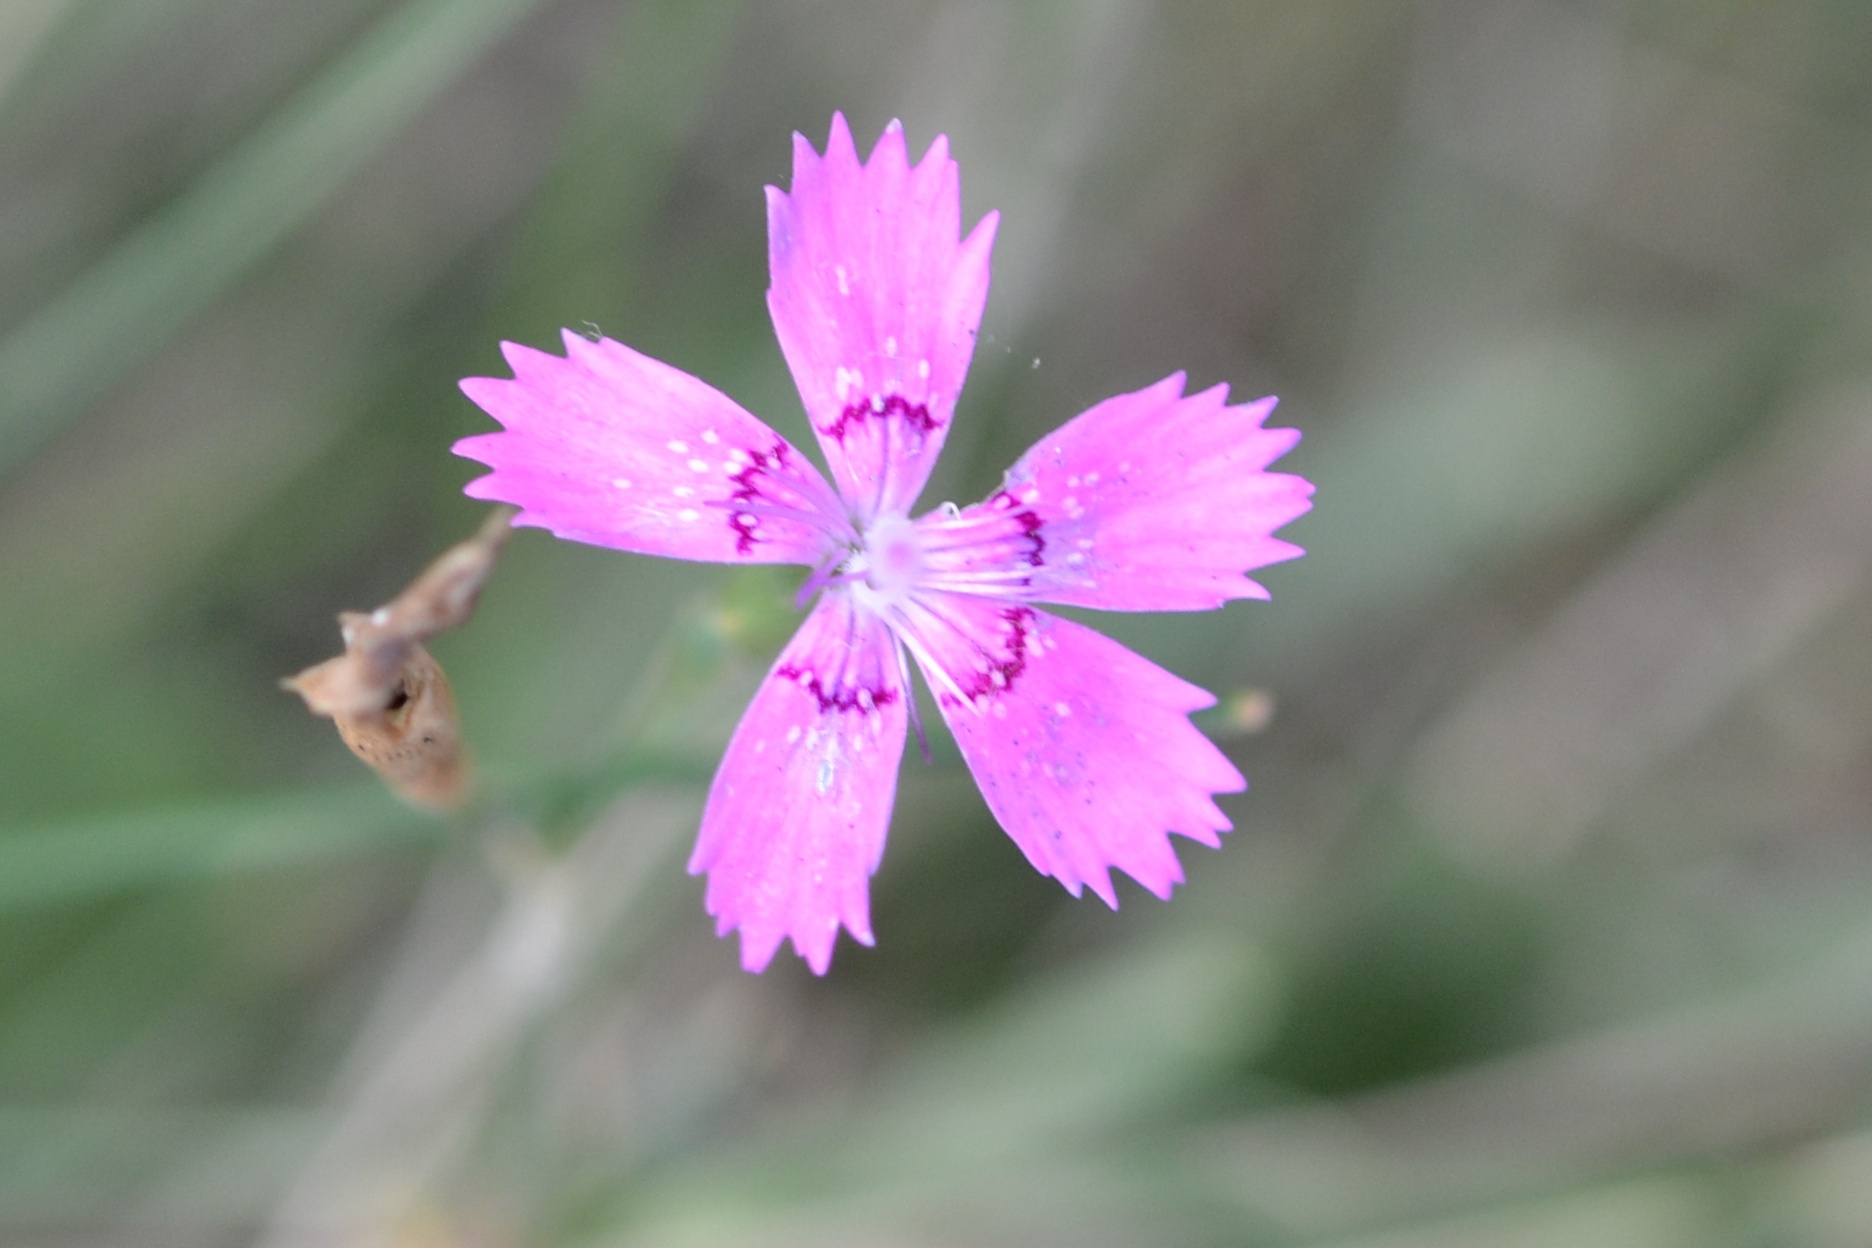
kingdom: Plantae
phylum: Tracheophyta
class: Magnoliopsida
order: Caryophyllales
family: Caryophyllaceae
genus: Dianthus
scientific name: Dianthus deltoides
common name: Maiden pink
